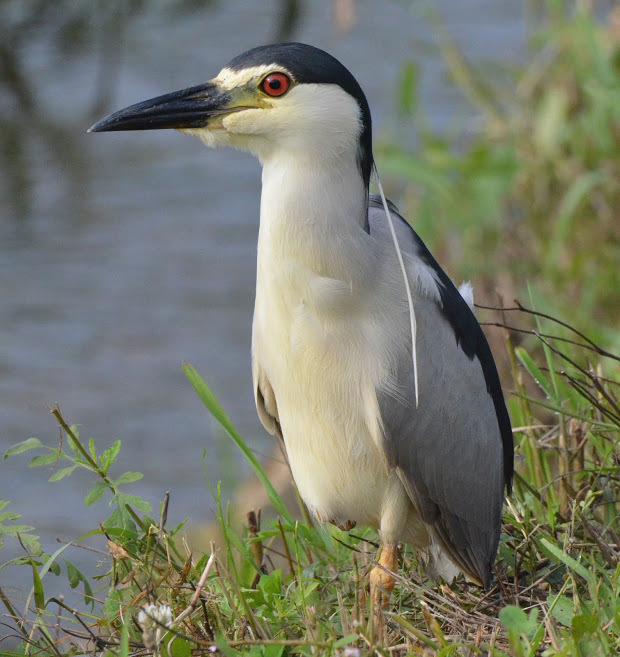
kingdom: Animalia
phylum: Chordata
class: Aves
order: Pelecaniformes
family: Ardeidae
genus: Nycticorax
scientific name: Nycticorax nycticorax
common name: Black-crowned night heron
